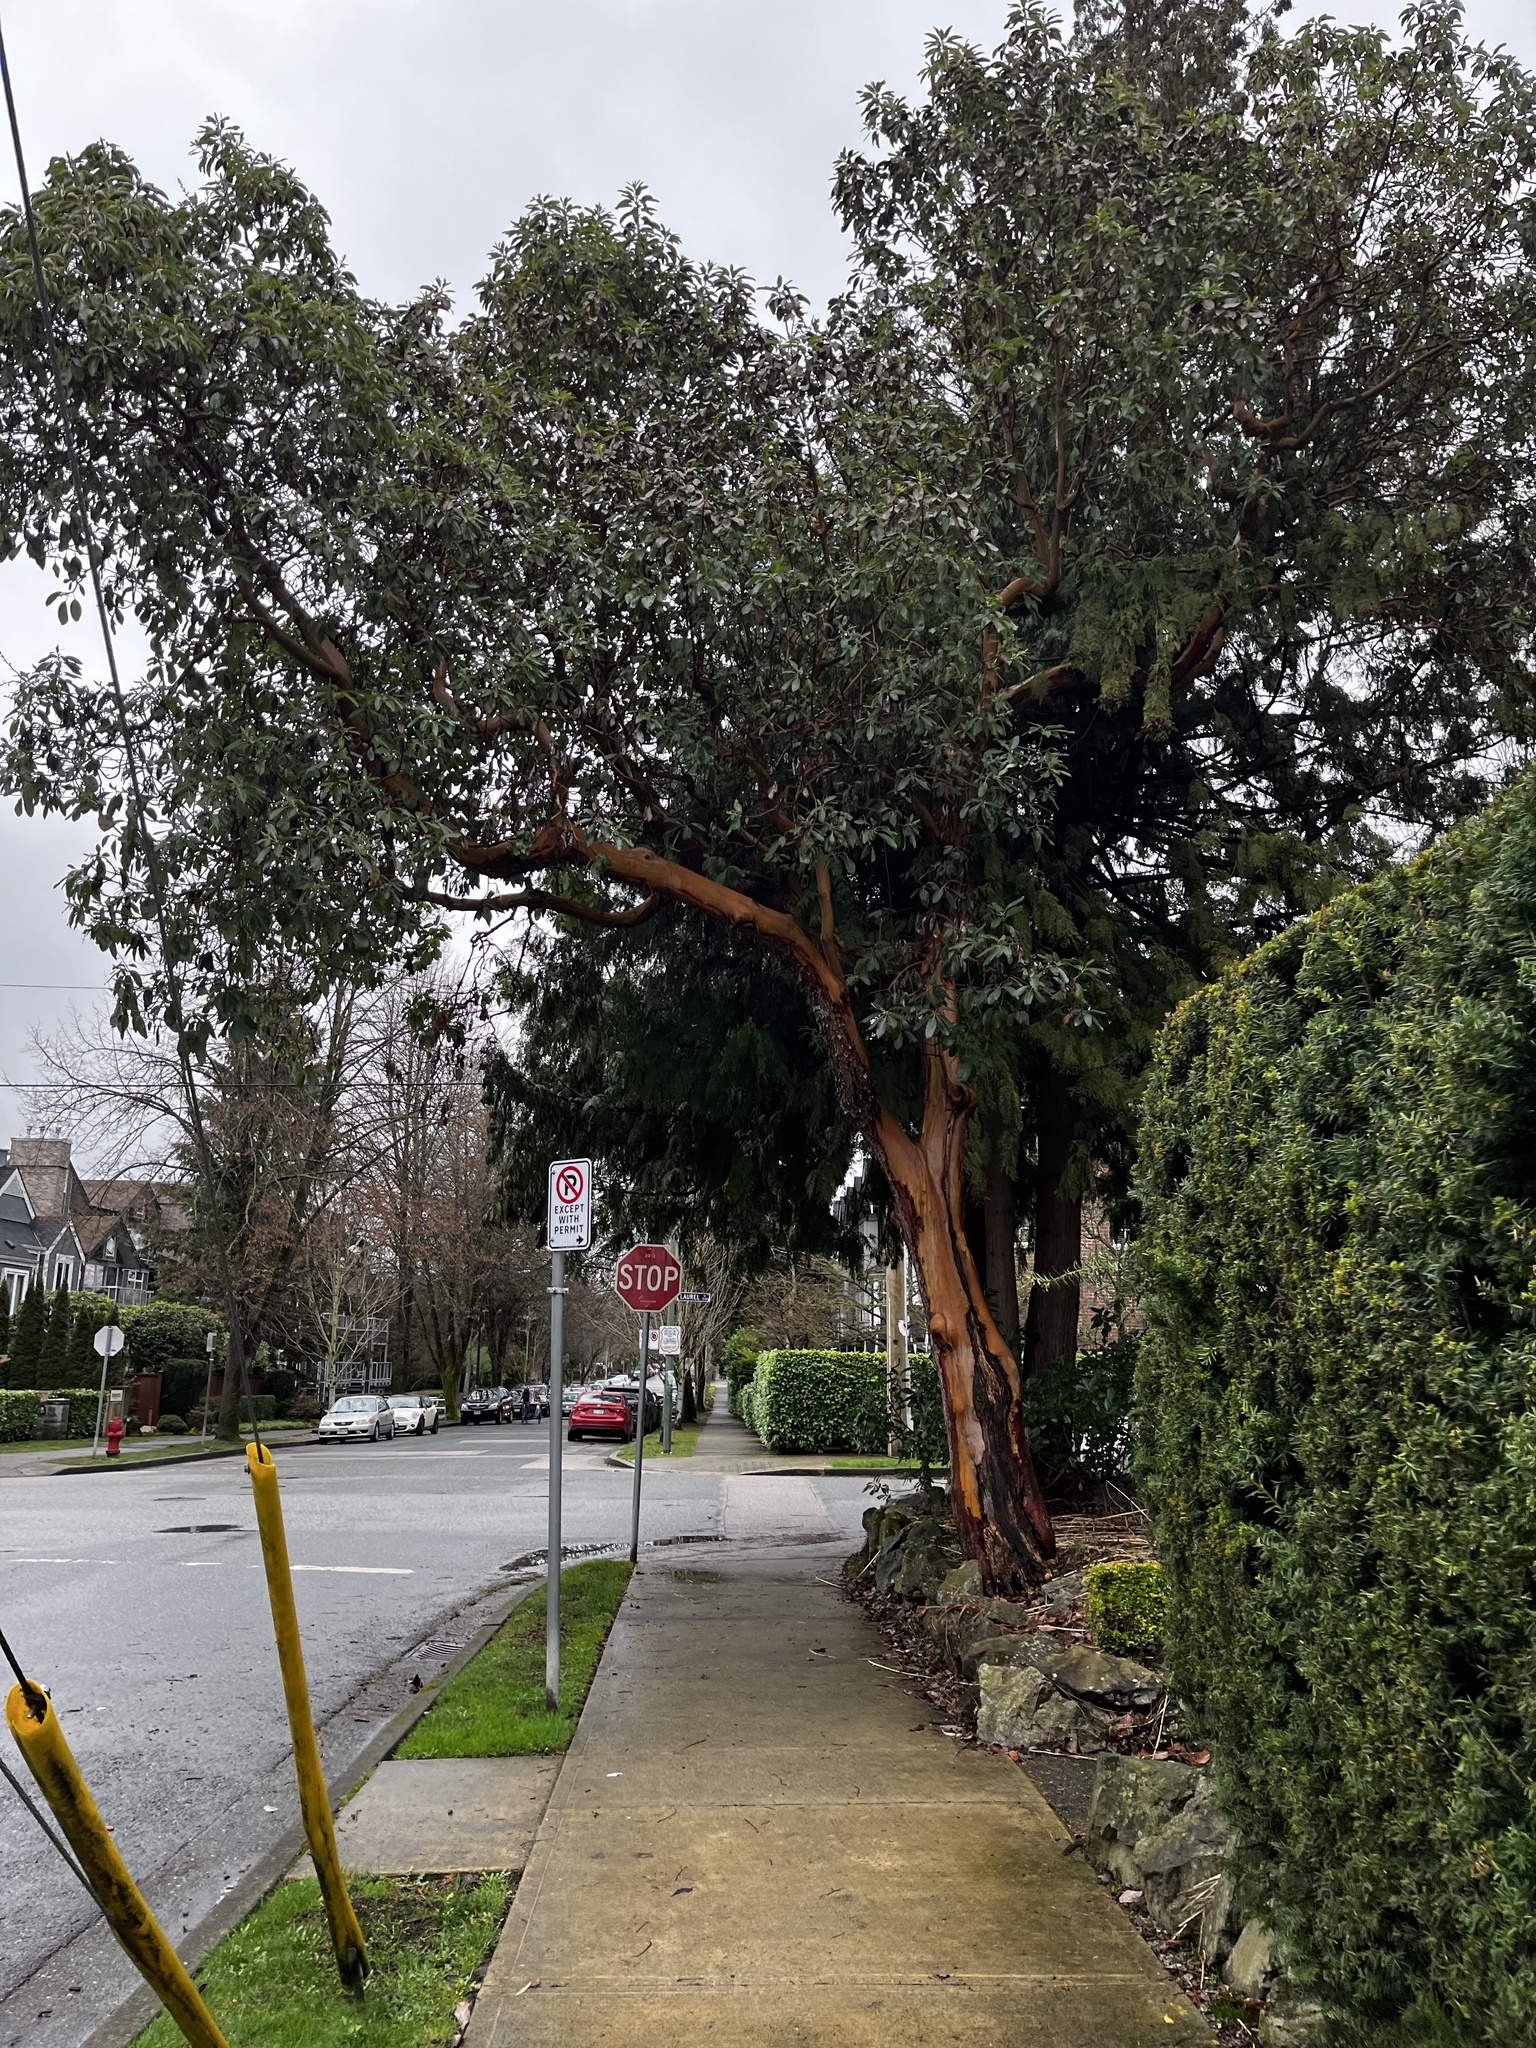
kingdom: Plantae
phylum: Tracheophyta
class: Magnoliopsida
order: Ericales
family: Ericaceae
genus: Arbutus
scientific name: Arbutus menziesii
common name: Pacific madrone
